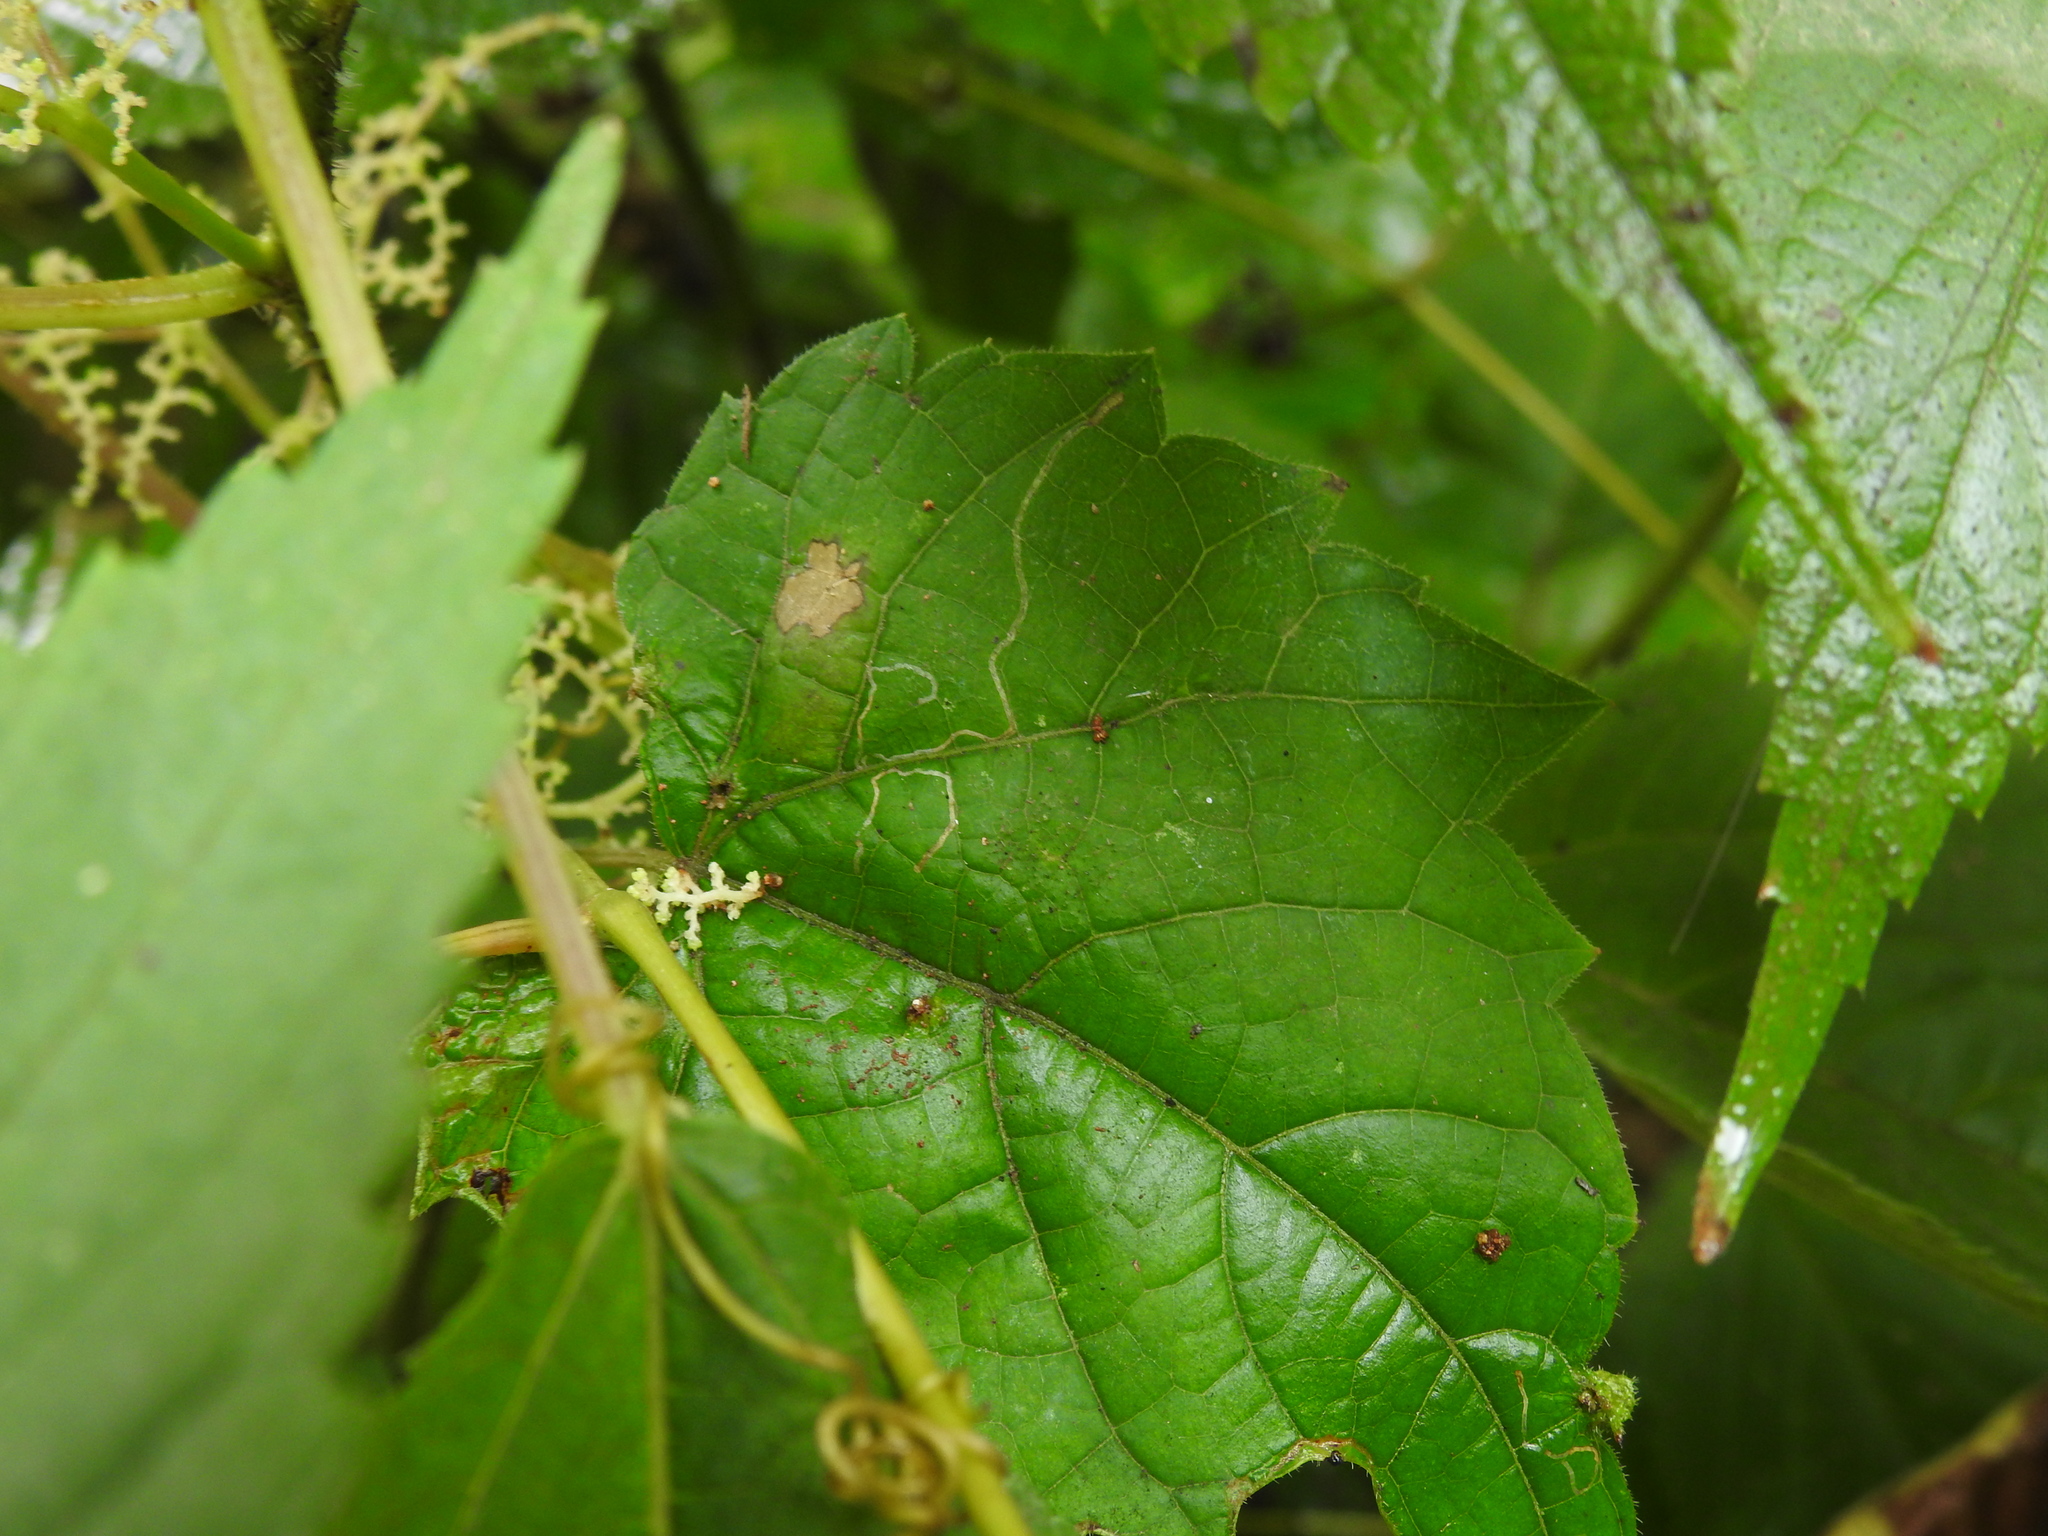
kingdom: Animalia
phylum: Arthropoda
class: Insecta
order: Lepidoptera
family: Gracillariidae
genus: Phyllocnistis
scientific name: Phyllocnistis vitifoliella
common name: Grape leaf-miner moth
